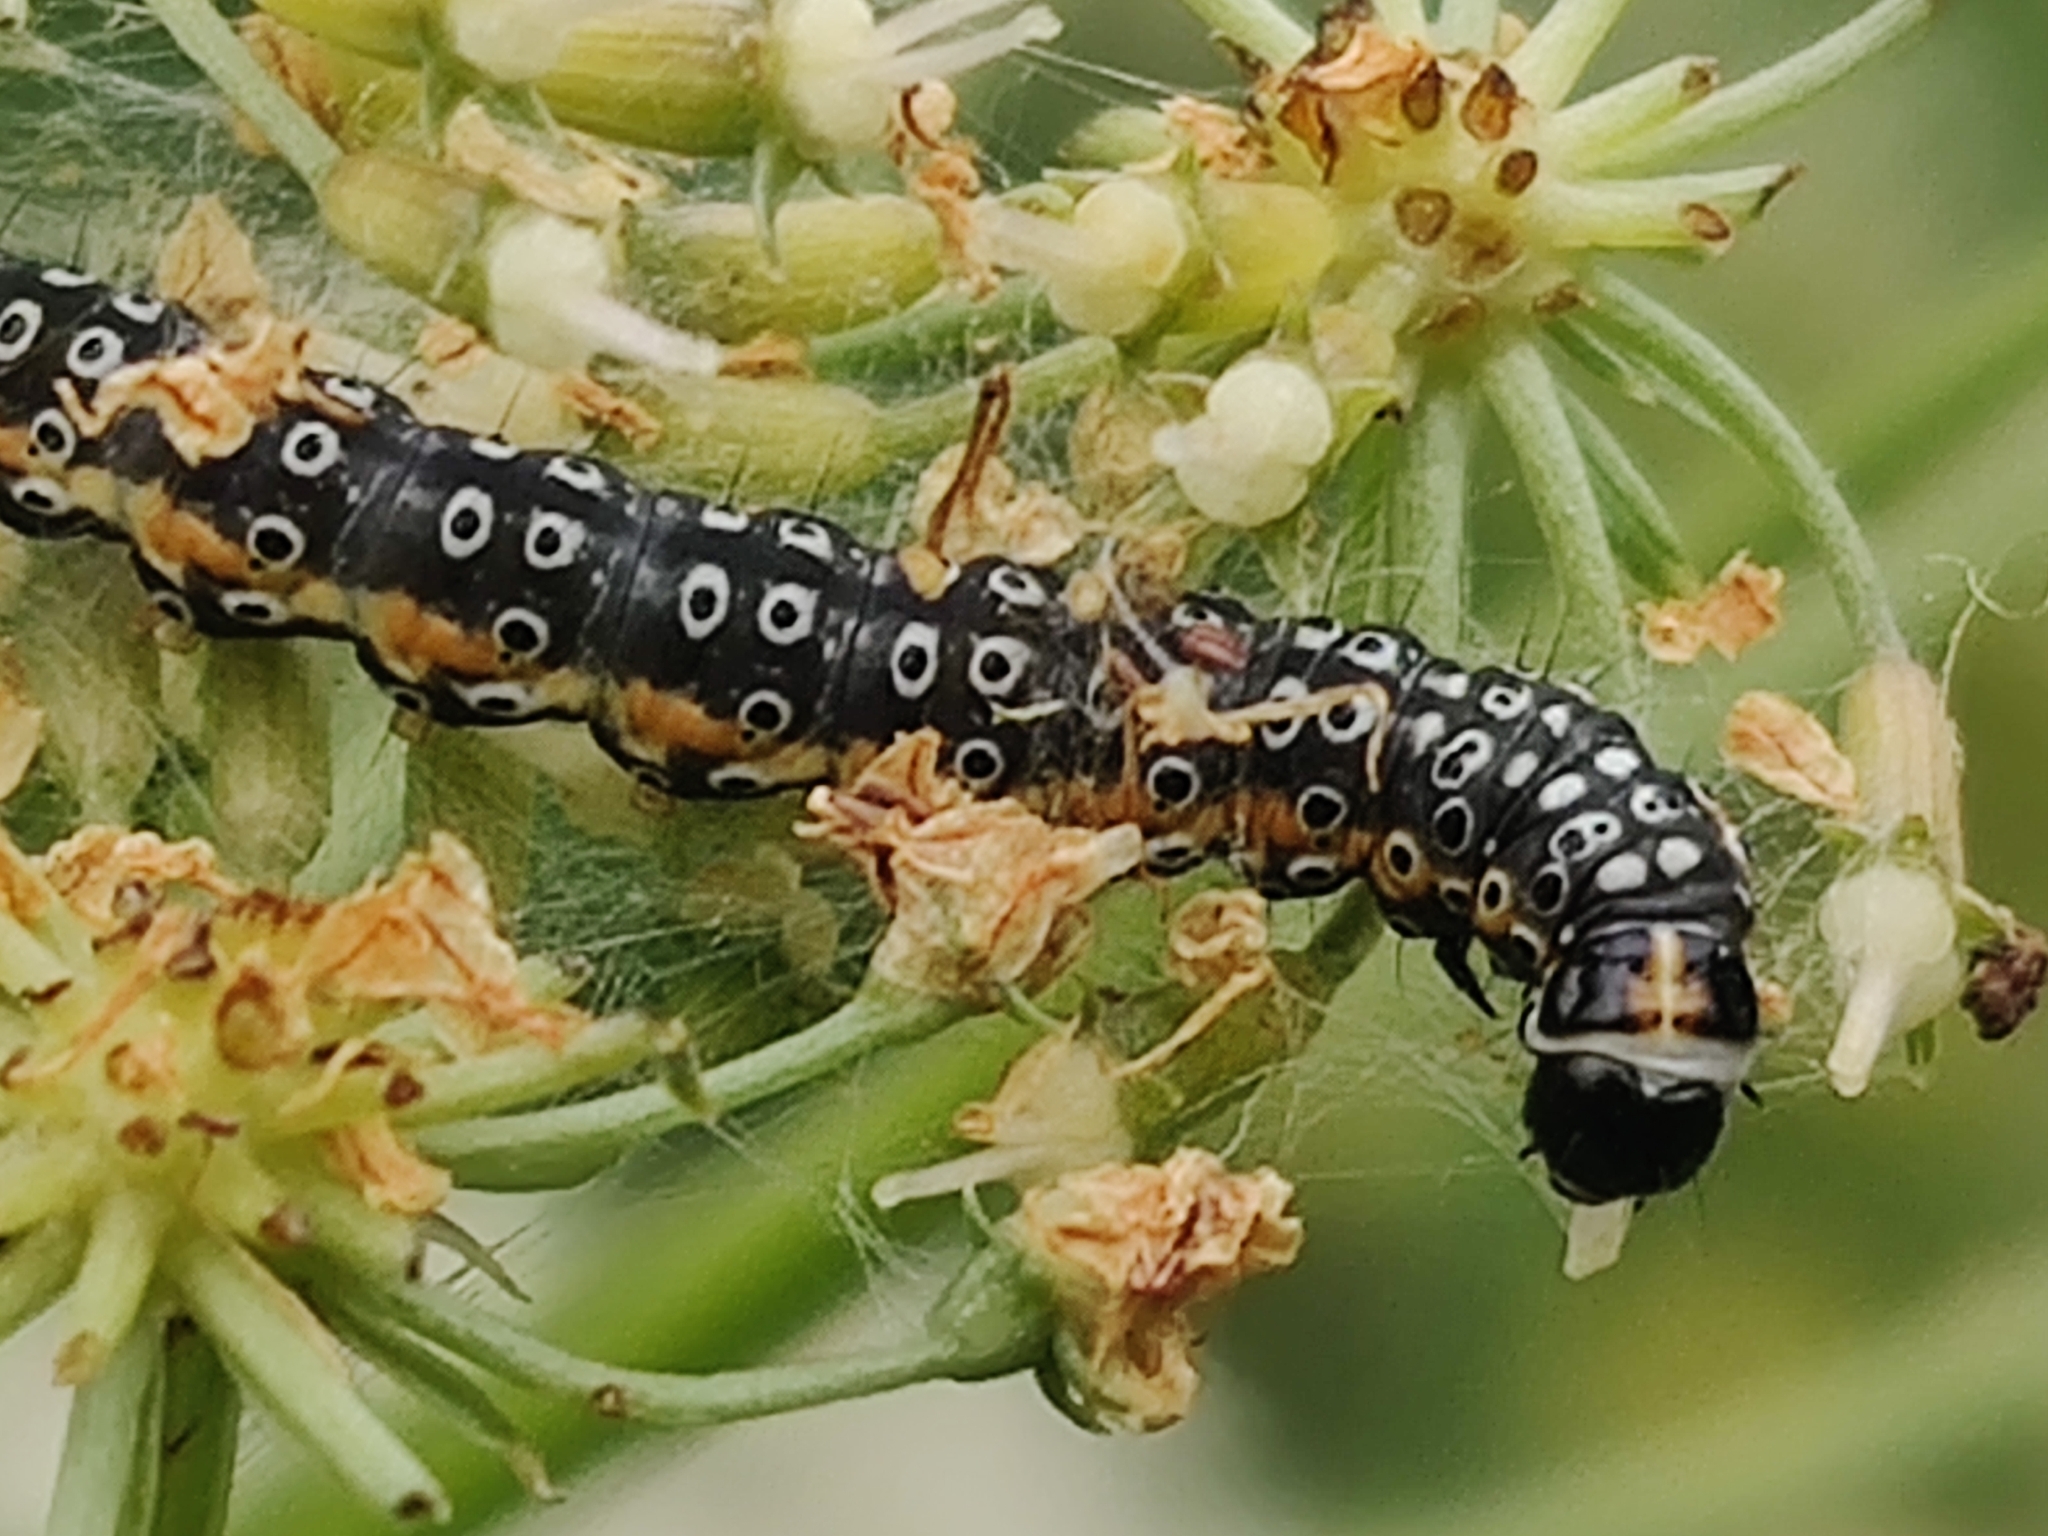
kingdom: Animalia
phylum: Arthropoda
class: Insecta
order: Lepidoptera
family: Depressariidae
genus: Depressaria
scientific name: Depressaria apiella
